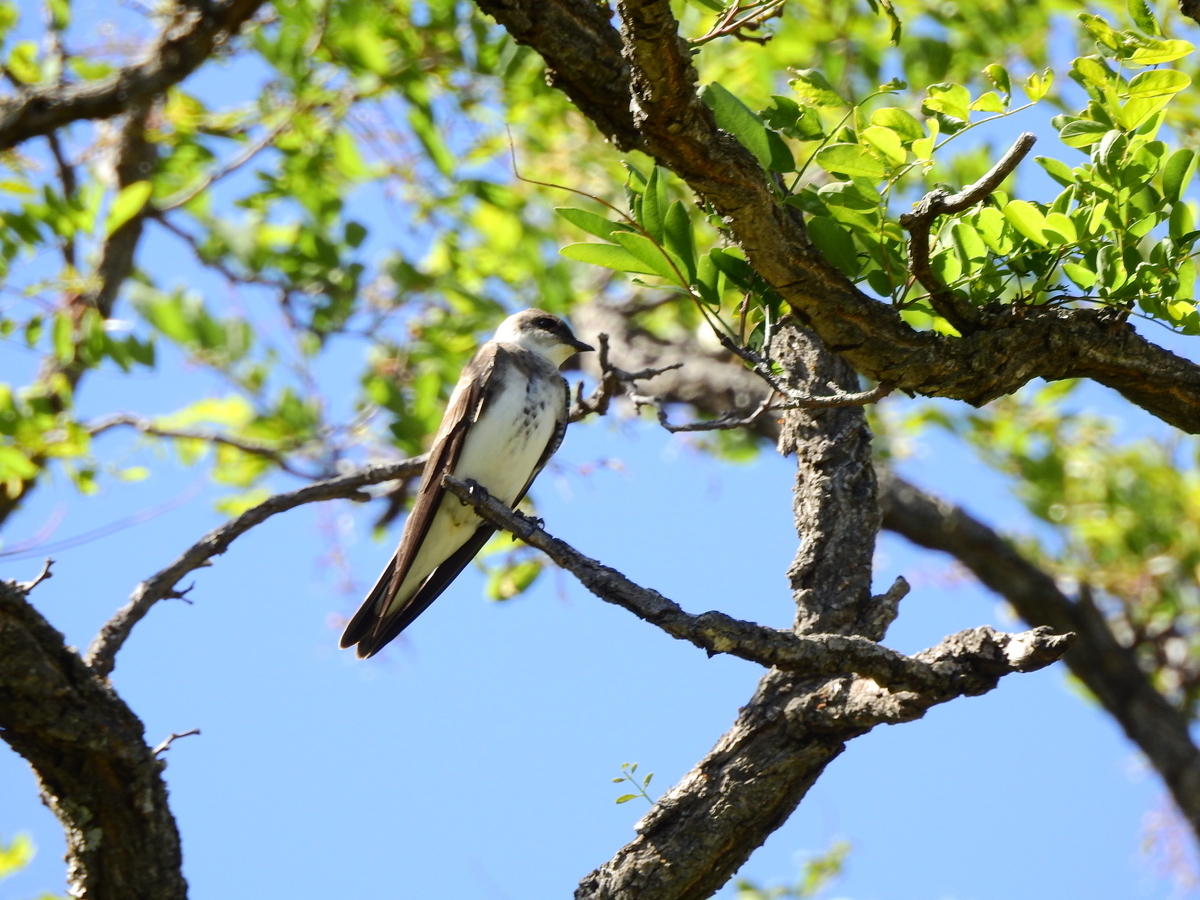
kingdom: Animalia
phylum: Chordata
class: Aves
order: Passeriformes
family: Hirundinidae
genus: Progne
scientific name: Progne tapera
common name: Brown-chested martin
